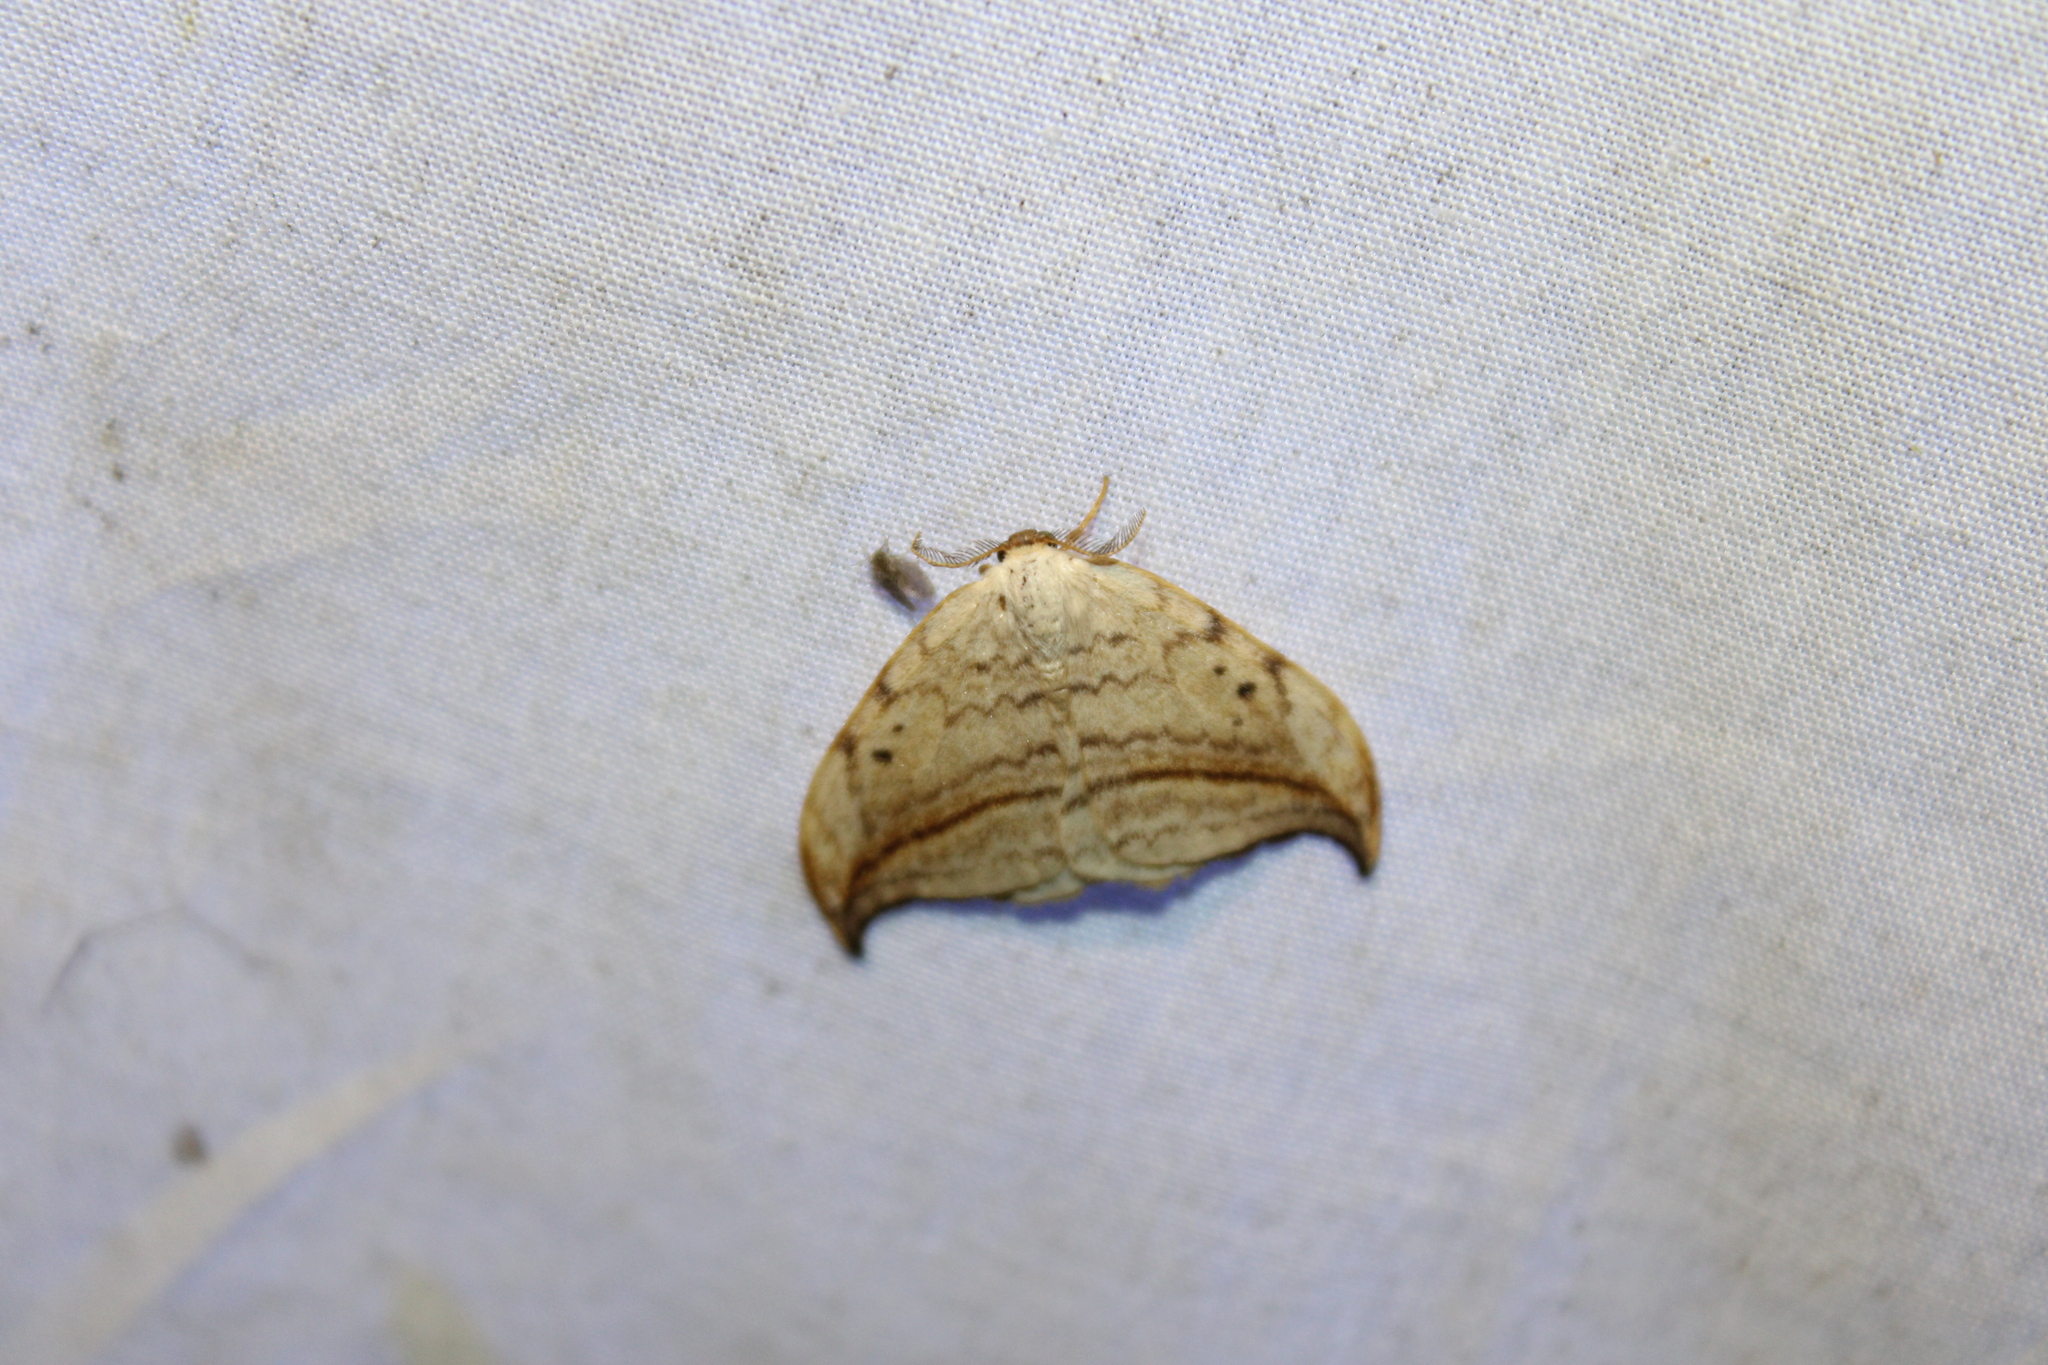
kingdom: Animalia
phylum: Arthropoda
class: Insecta
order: Lepidoptera
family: Drepanidae
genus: Drepana
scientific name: Drepana arcuata
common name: Arched hooktip moth
